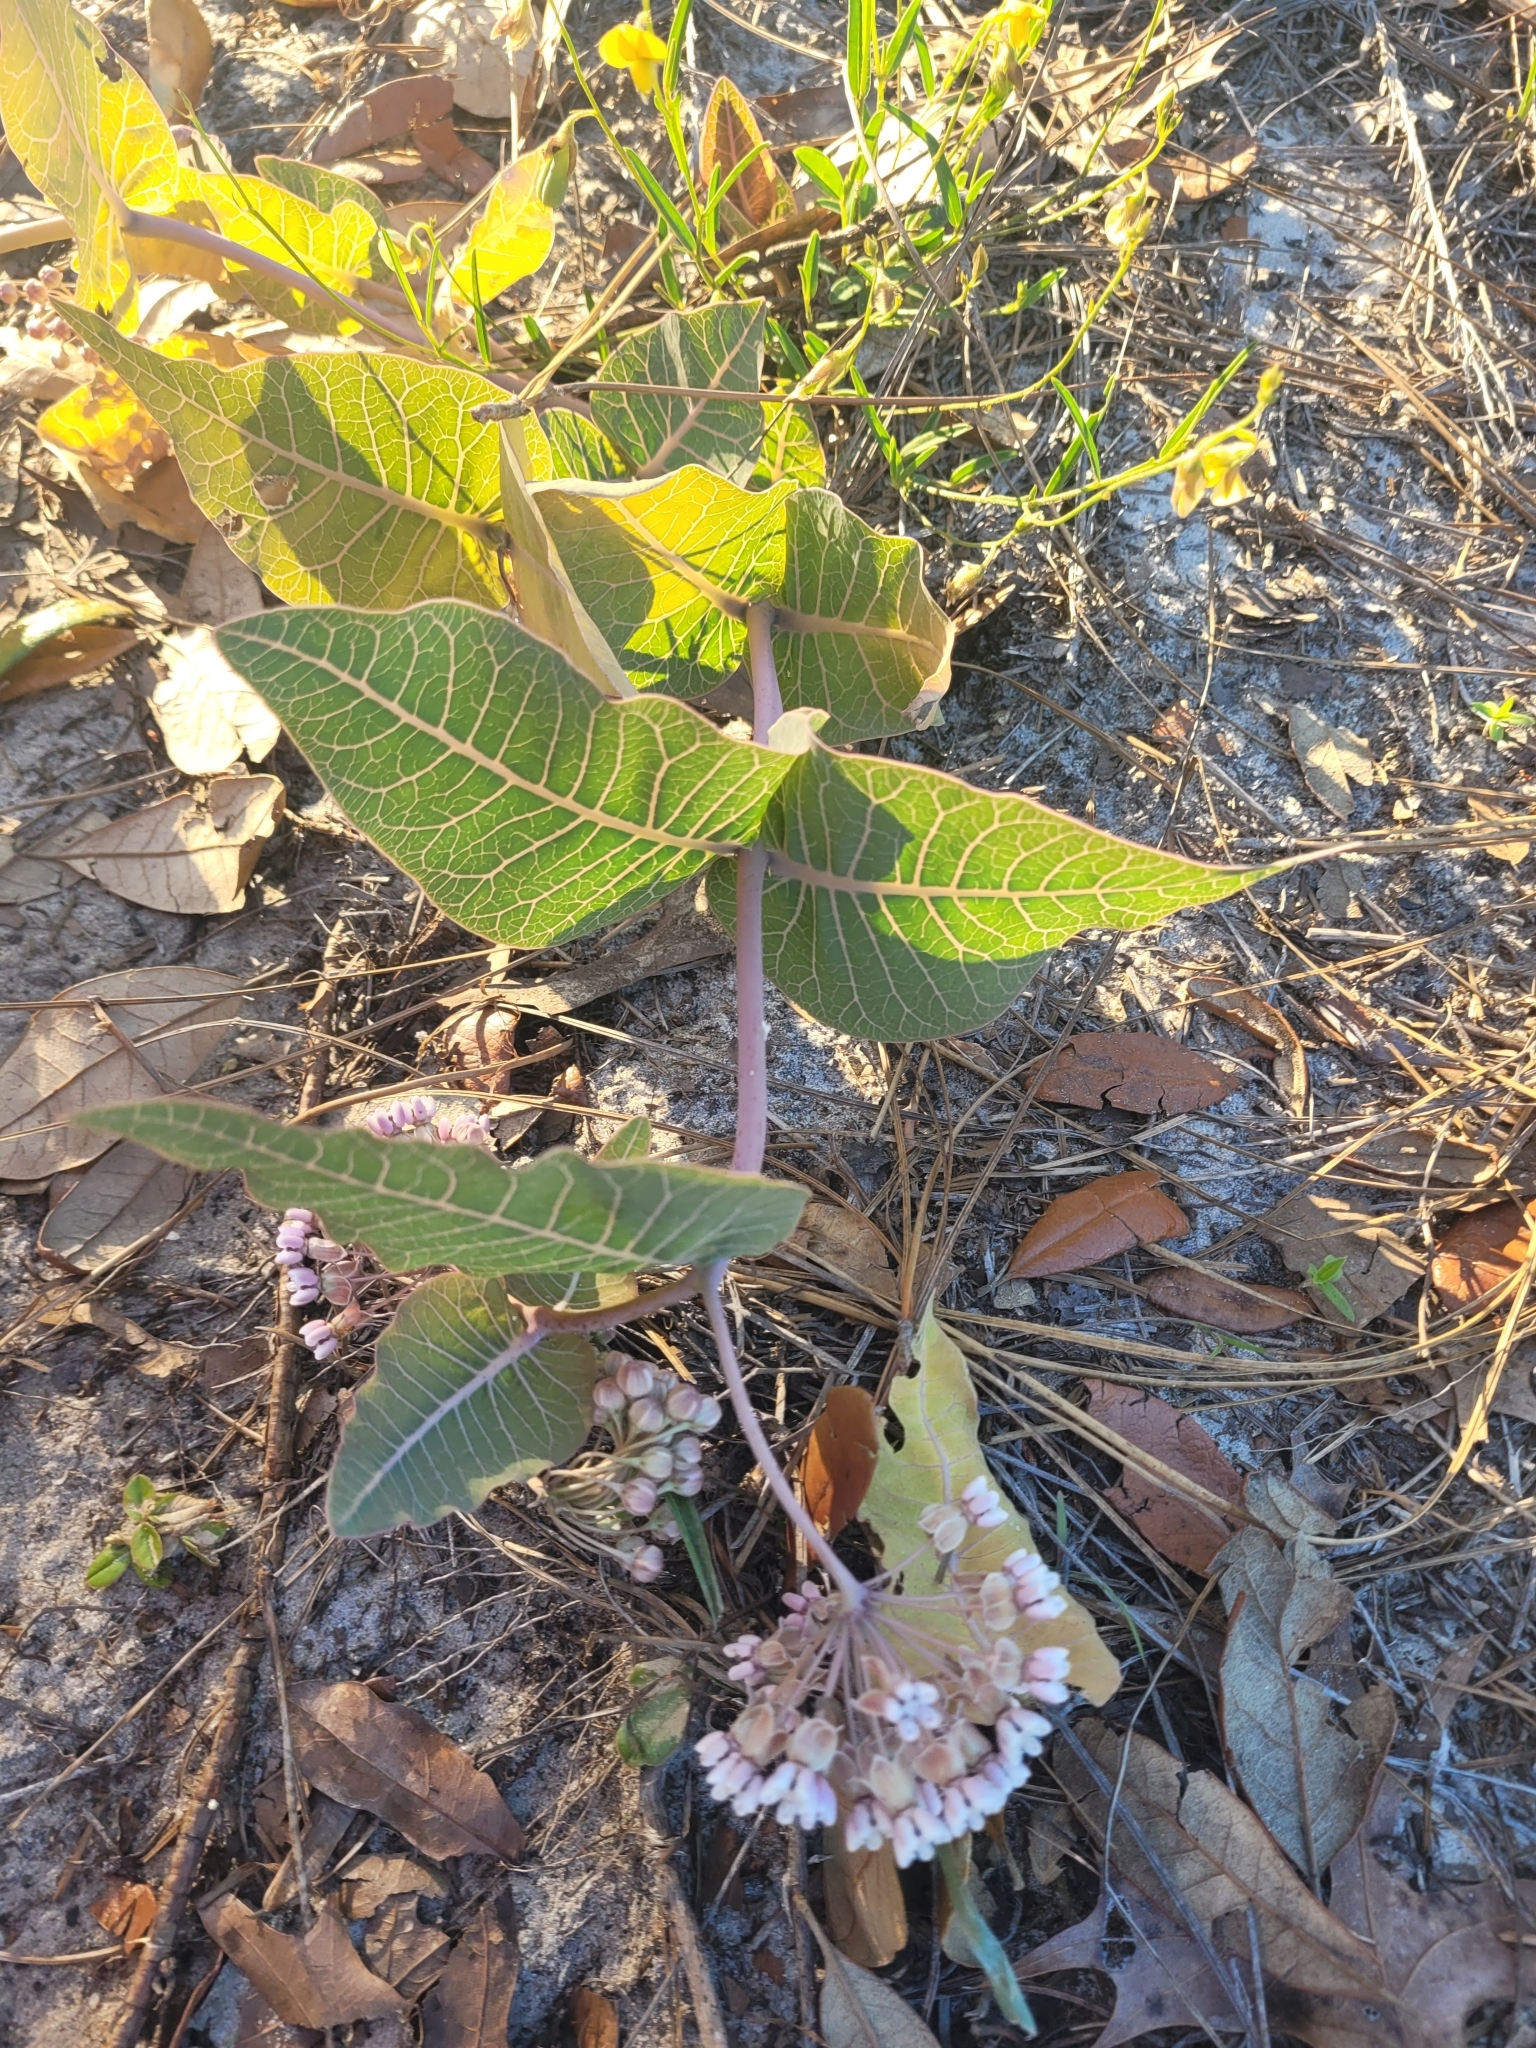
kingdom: Plantae
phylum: Tracheophyta
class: Magnoliopsida
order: Gentianales
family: Apocynaceae
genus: Asclepias
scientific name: Asclepias humistrata
